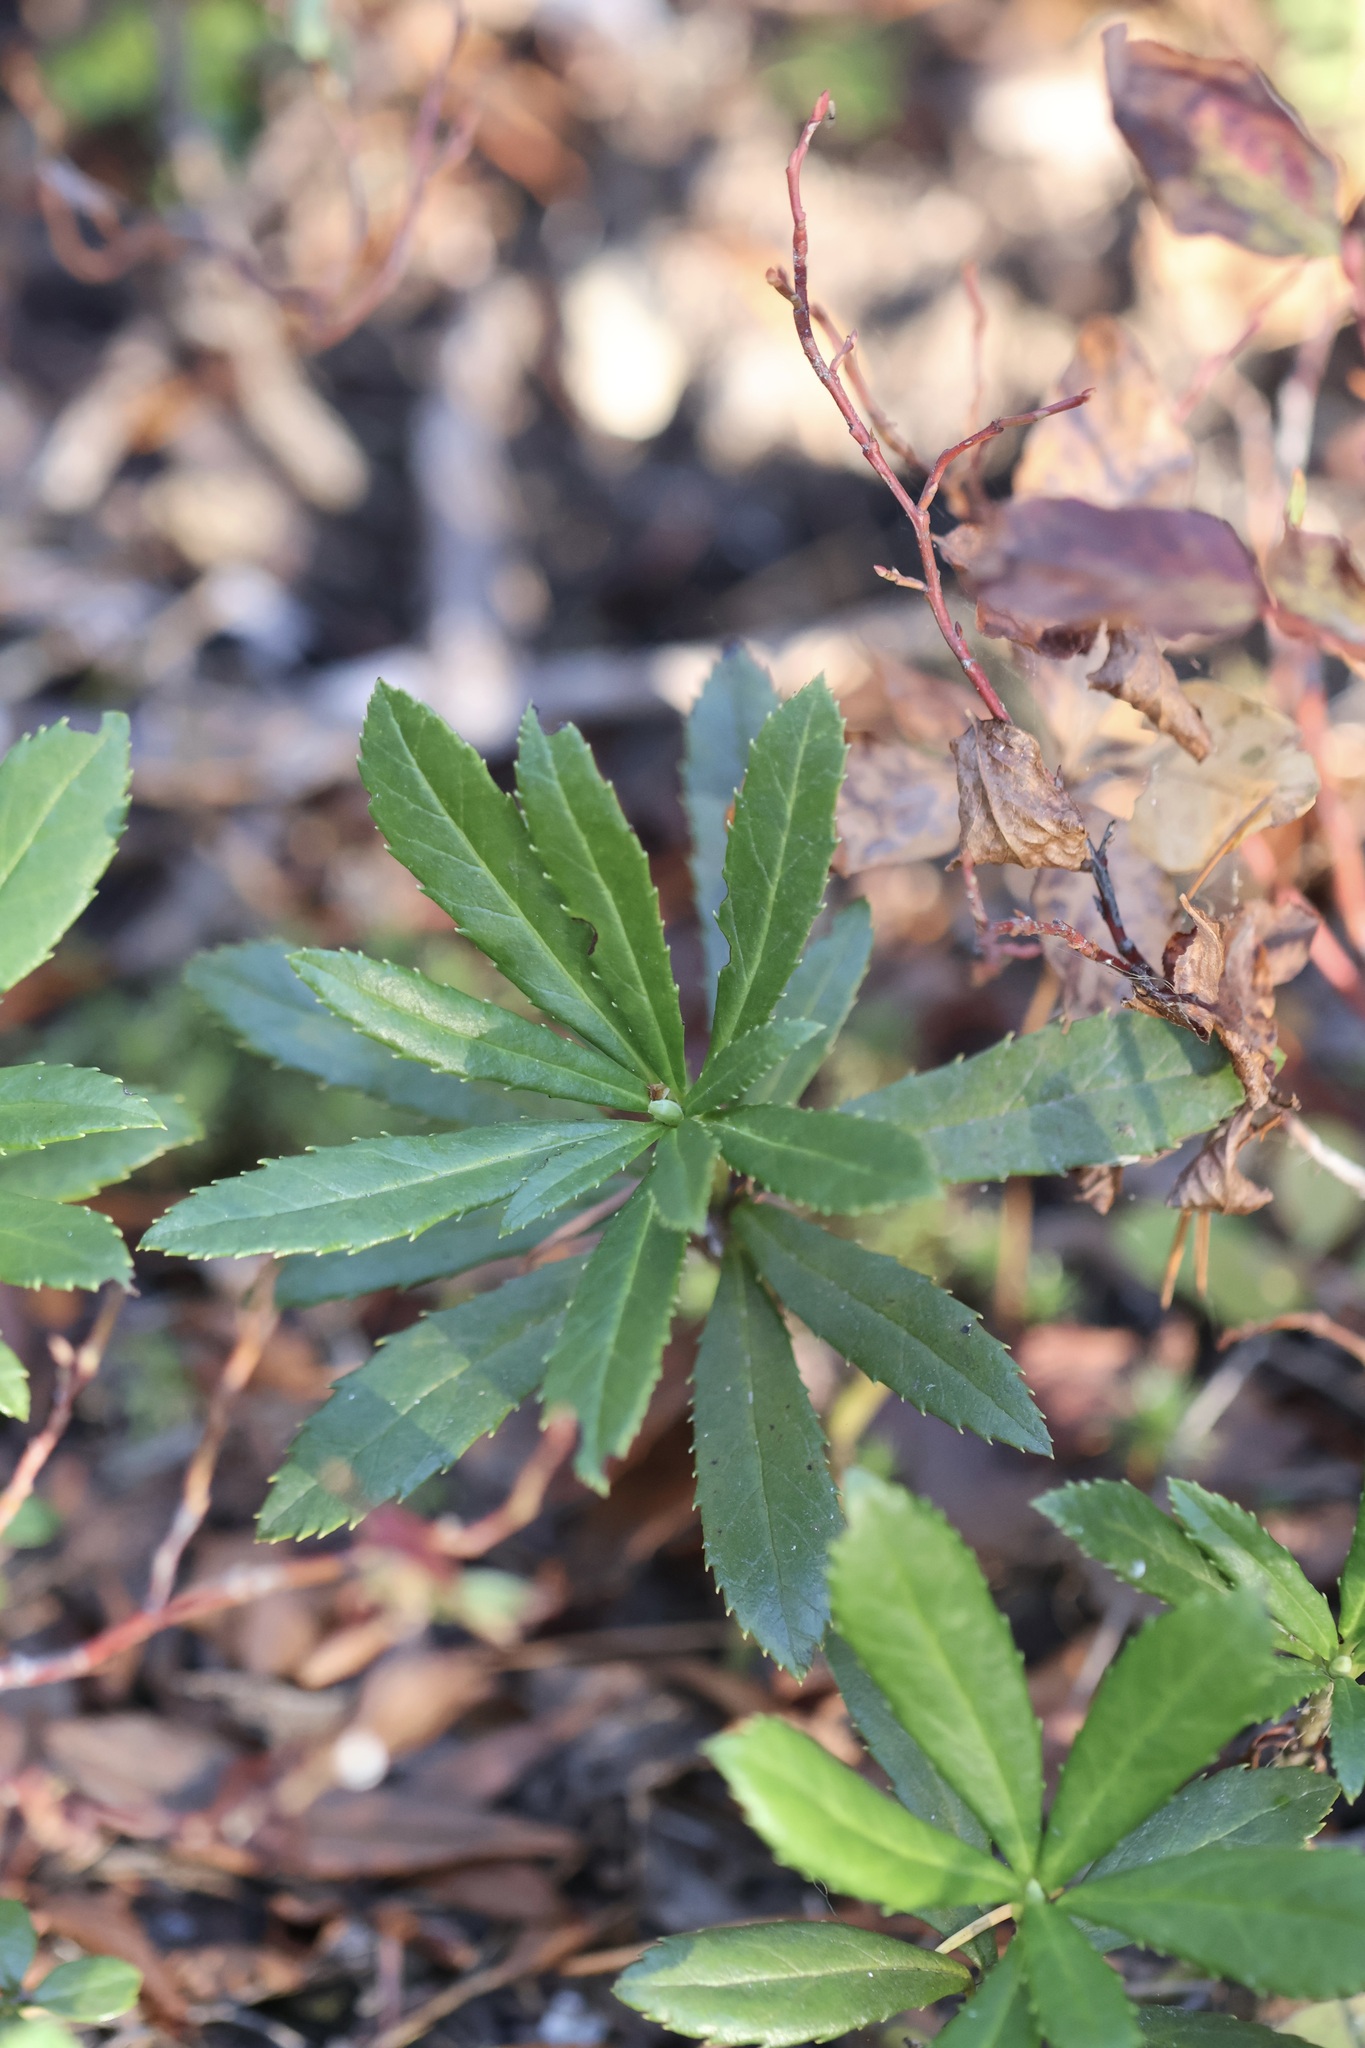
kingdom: Plantae
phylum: Tracheophyta
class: Magnoliopsida
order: Ericales
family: Ericaceae
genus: Chimaphila
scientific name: Chimaphila umbellata
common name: Pipsissewa
